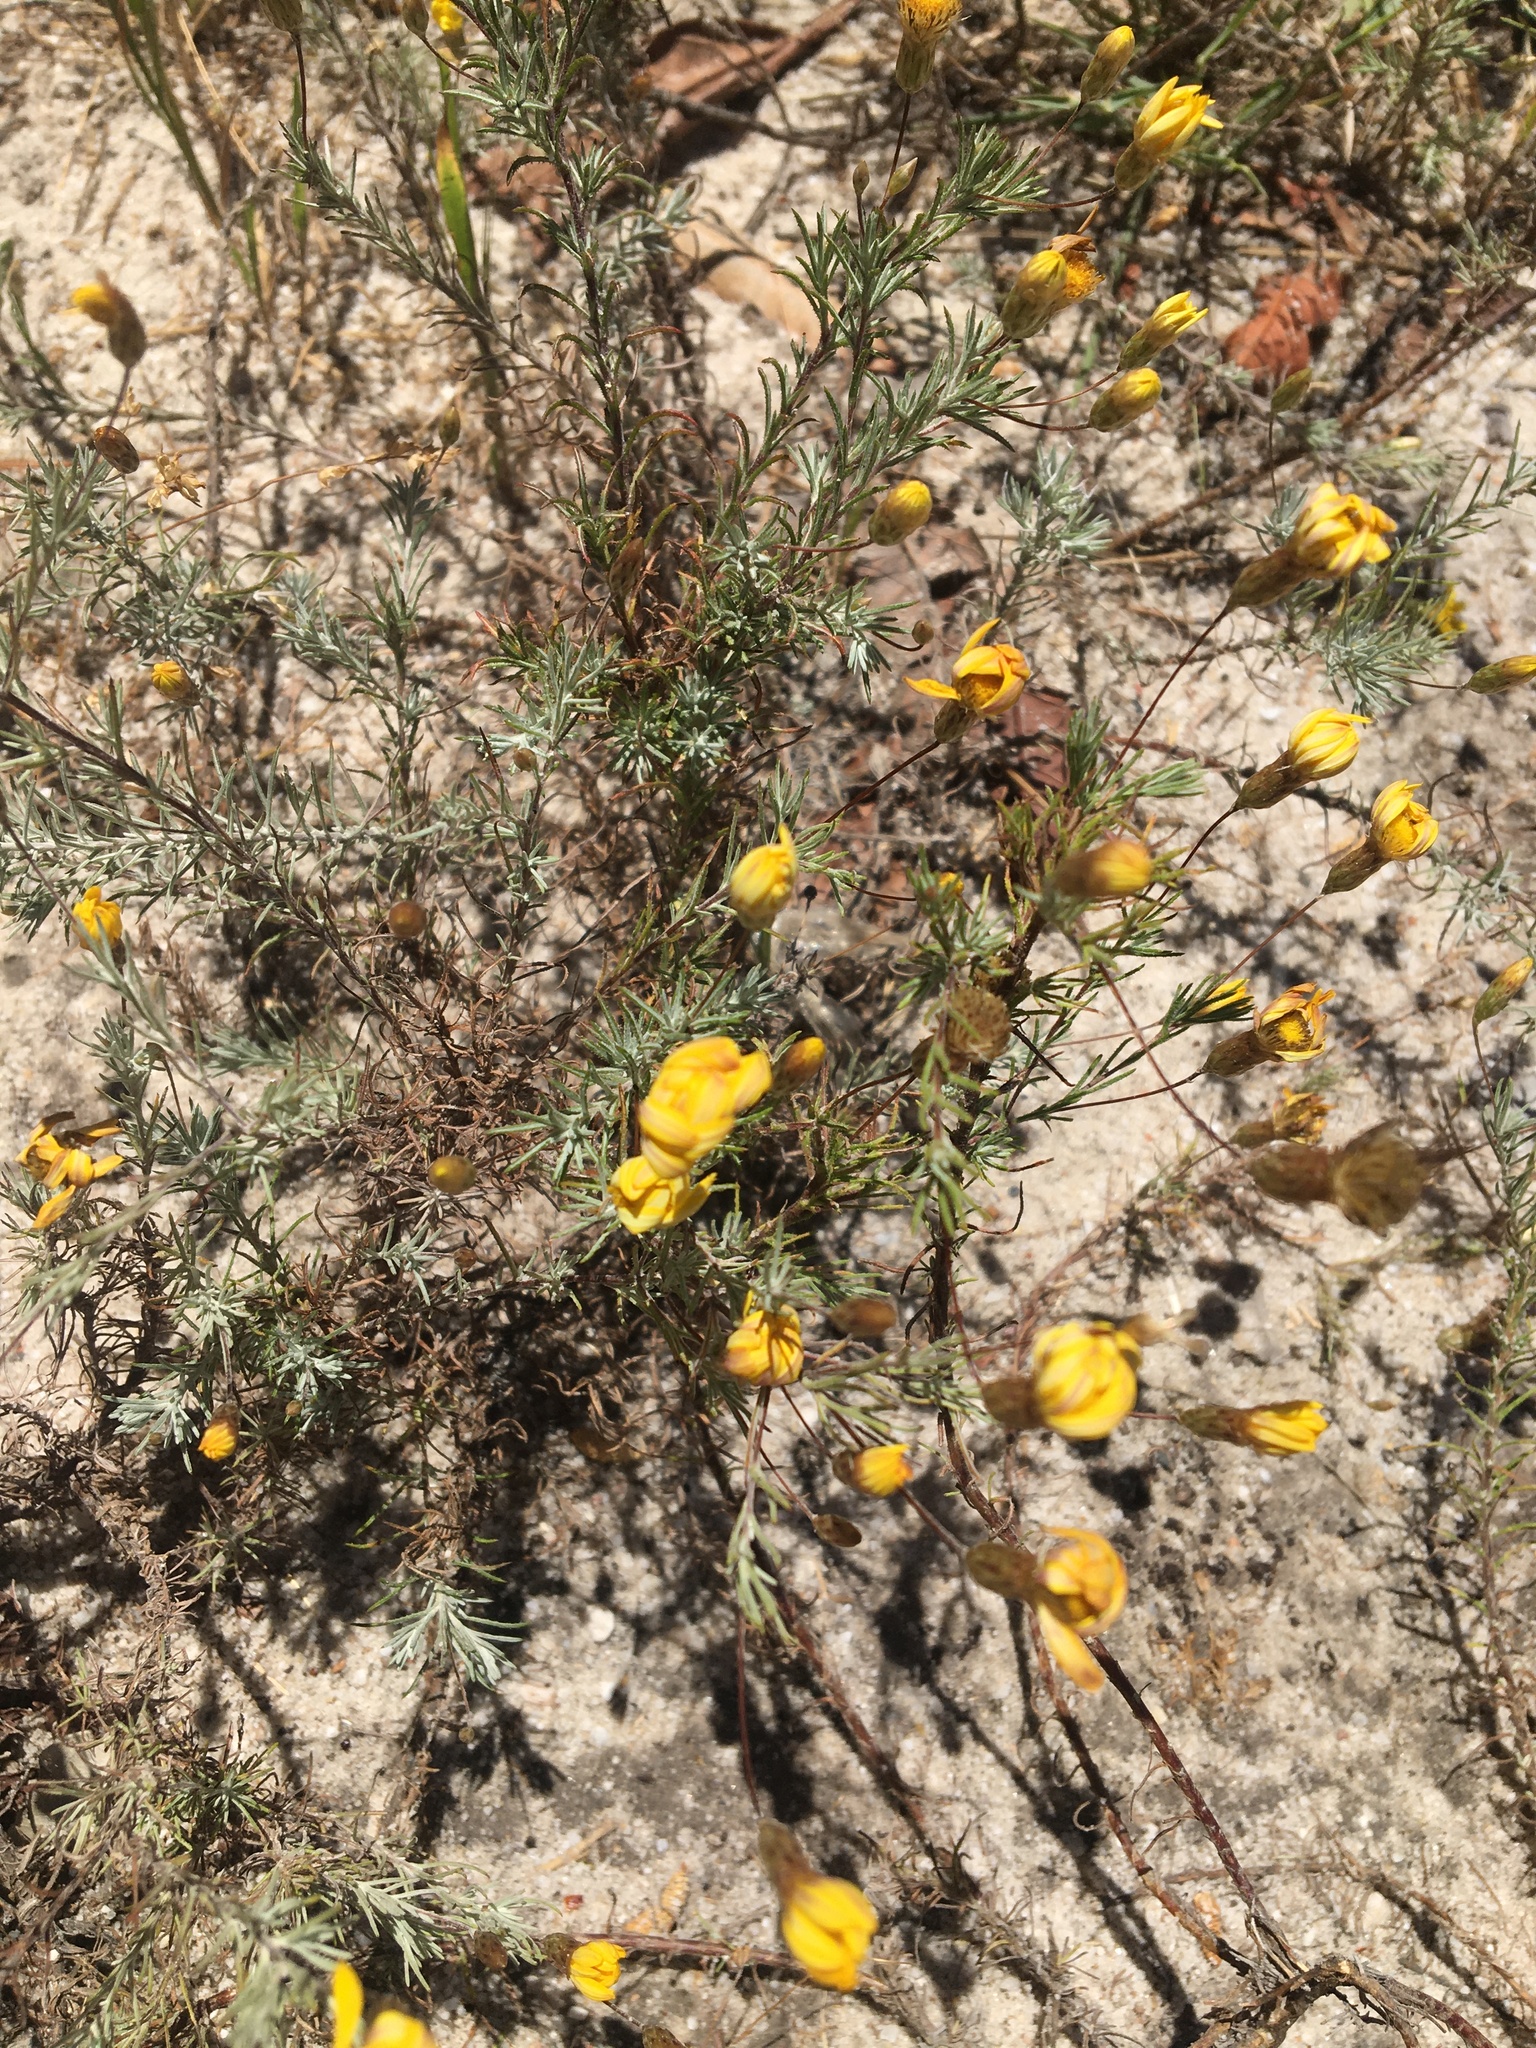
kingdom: Plantae
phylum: Tracheophyta
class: Magnoliopsida
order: Asterales
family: Asteraceae
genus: Leysera
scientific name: Leysera gnaphalodes
